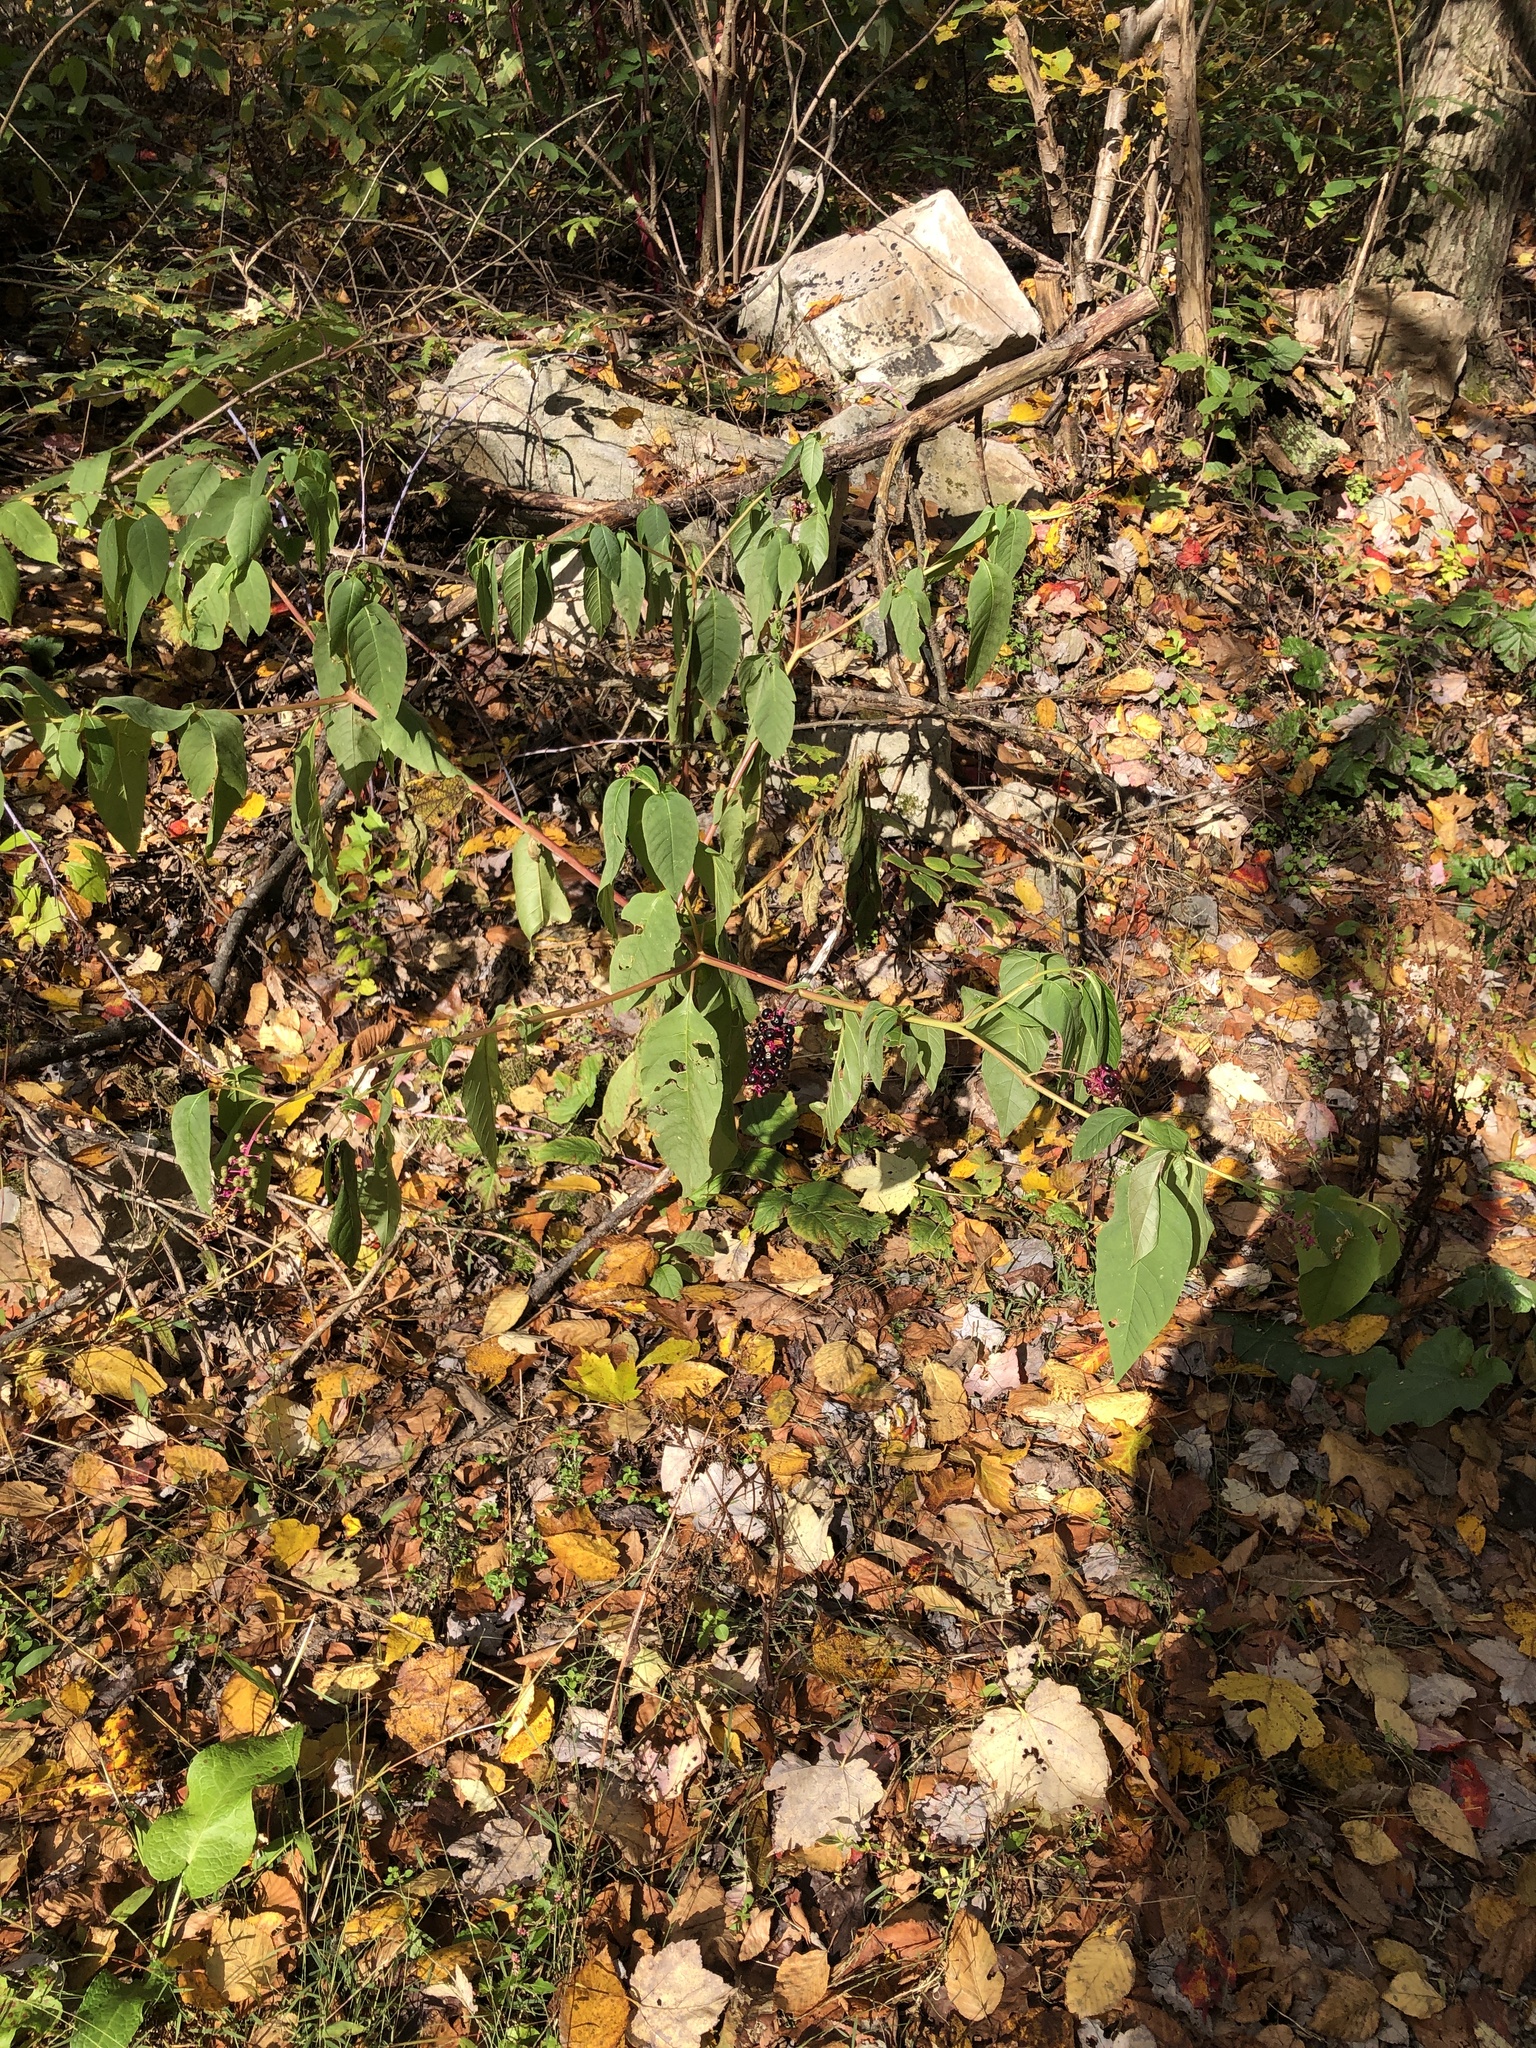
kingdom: Plantae
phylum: Tracheophyta
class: Magnoliopsida
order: Caryophyllales
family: Phytolaccaceae
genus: Phytolacca
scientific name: Phytolacca americana
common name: American pokeweed
